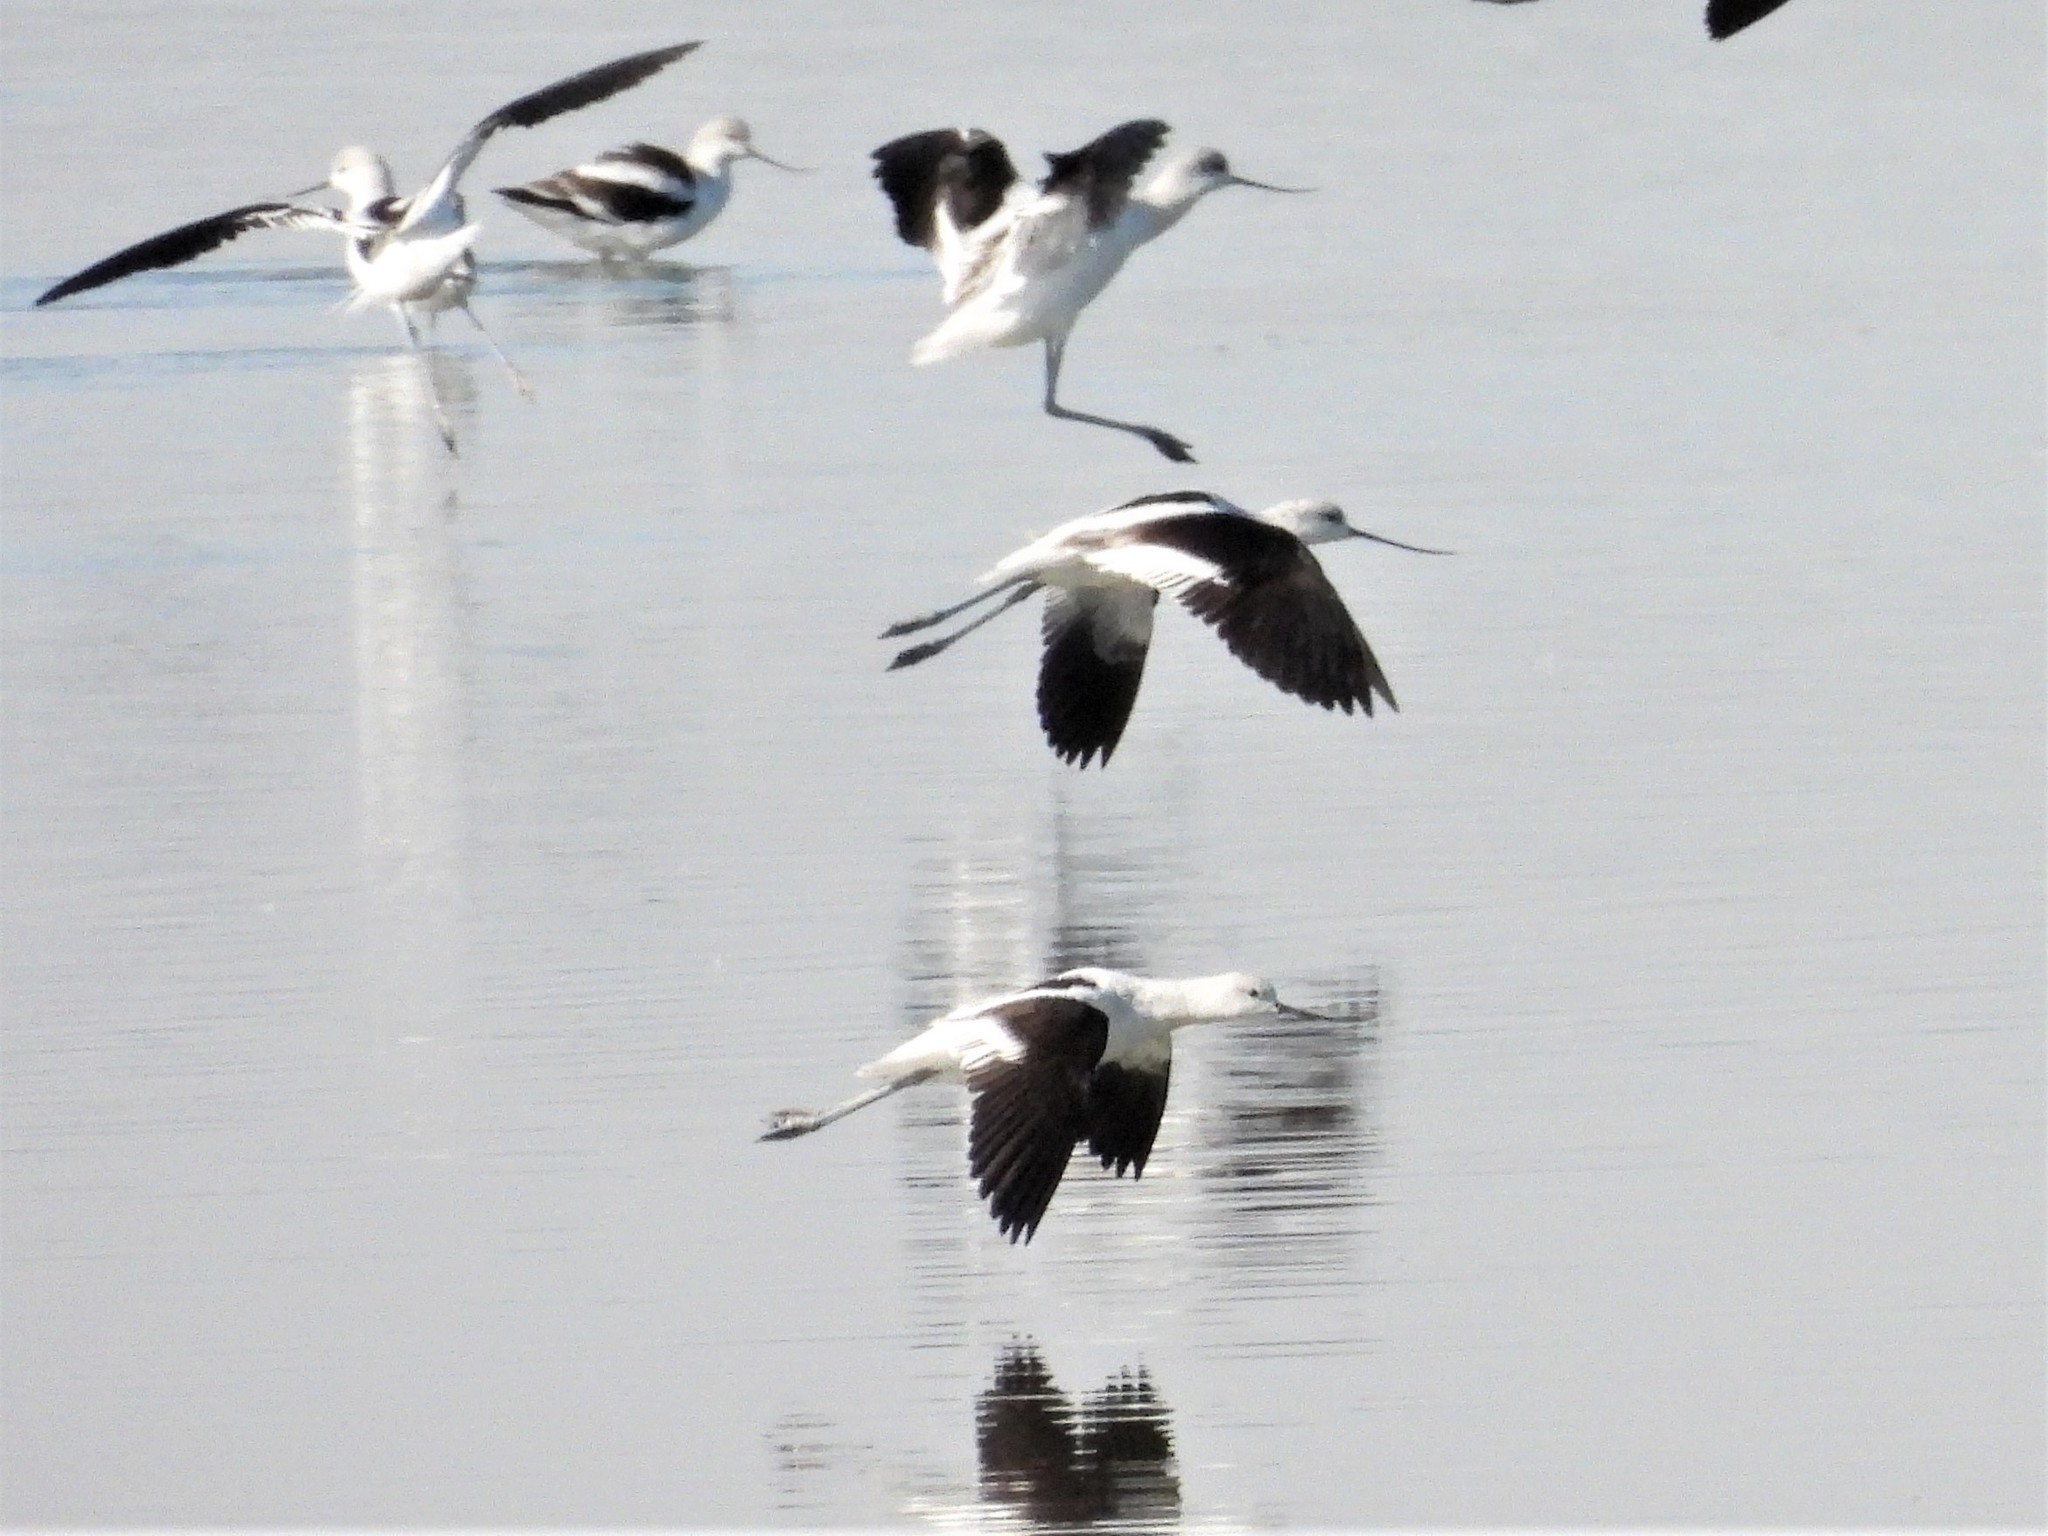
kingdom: Animalia
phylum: Chordata
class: Aves
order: Charadriiformes
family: Recurvirostridae
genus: Recurvirostra
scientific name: Recurvirostra americana
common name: American avocet
